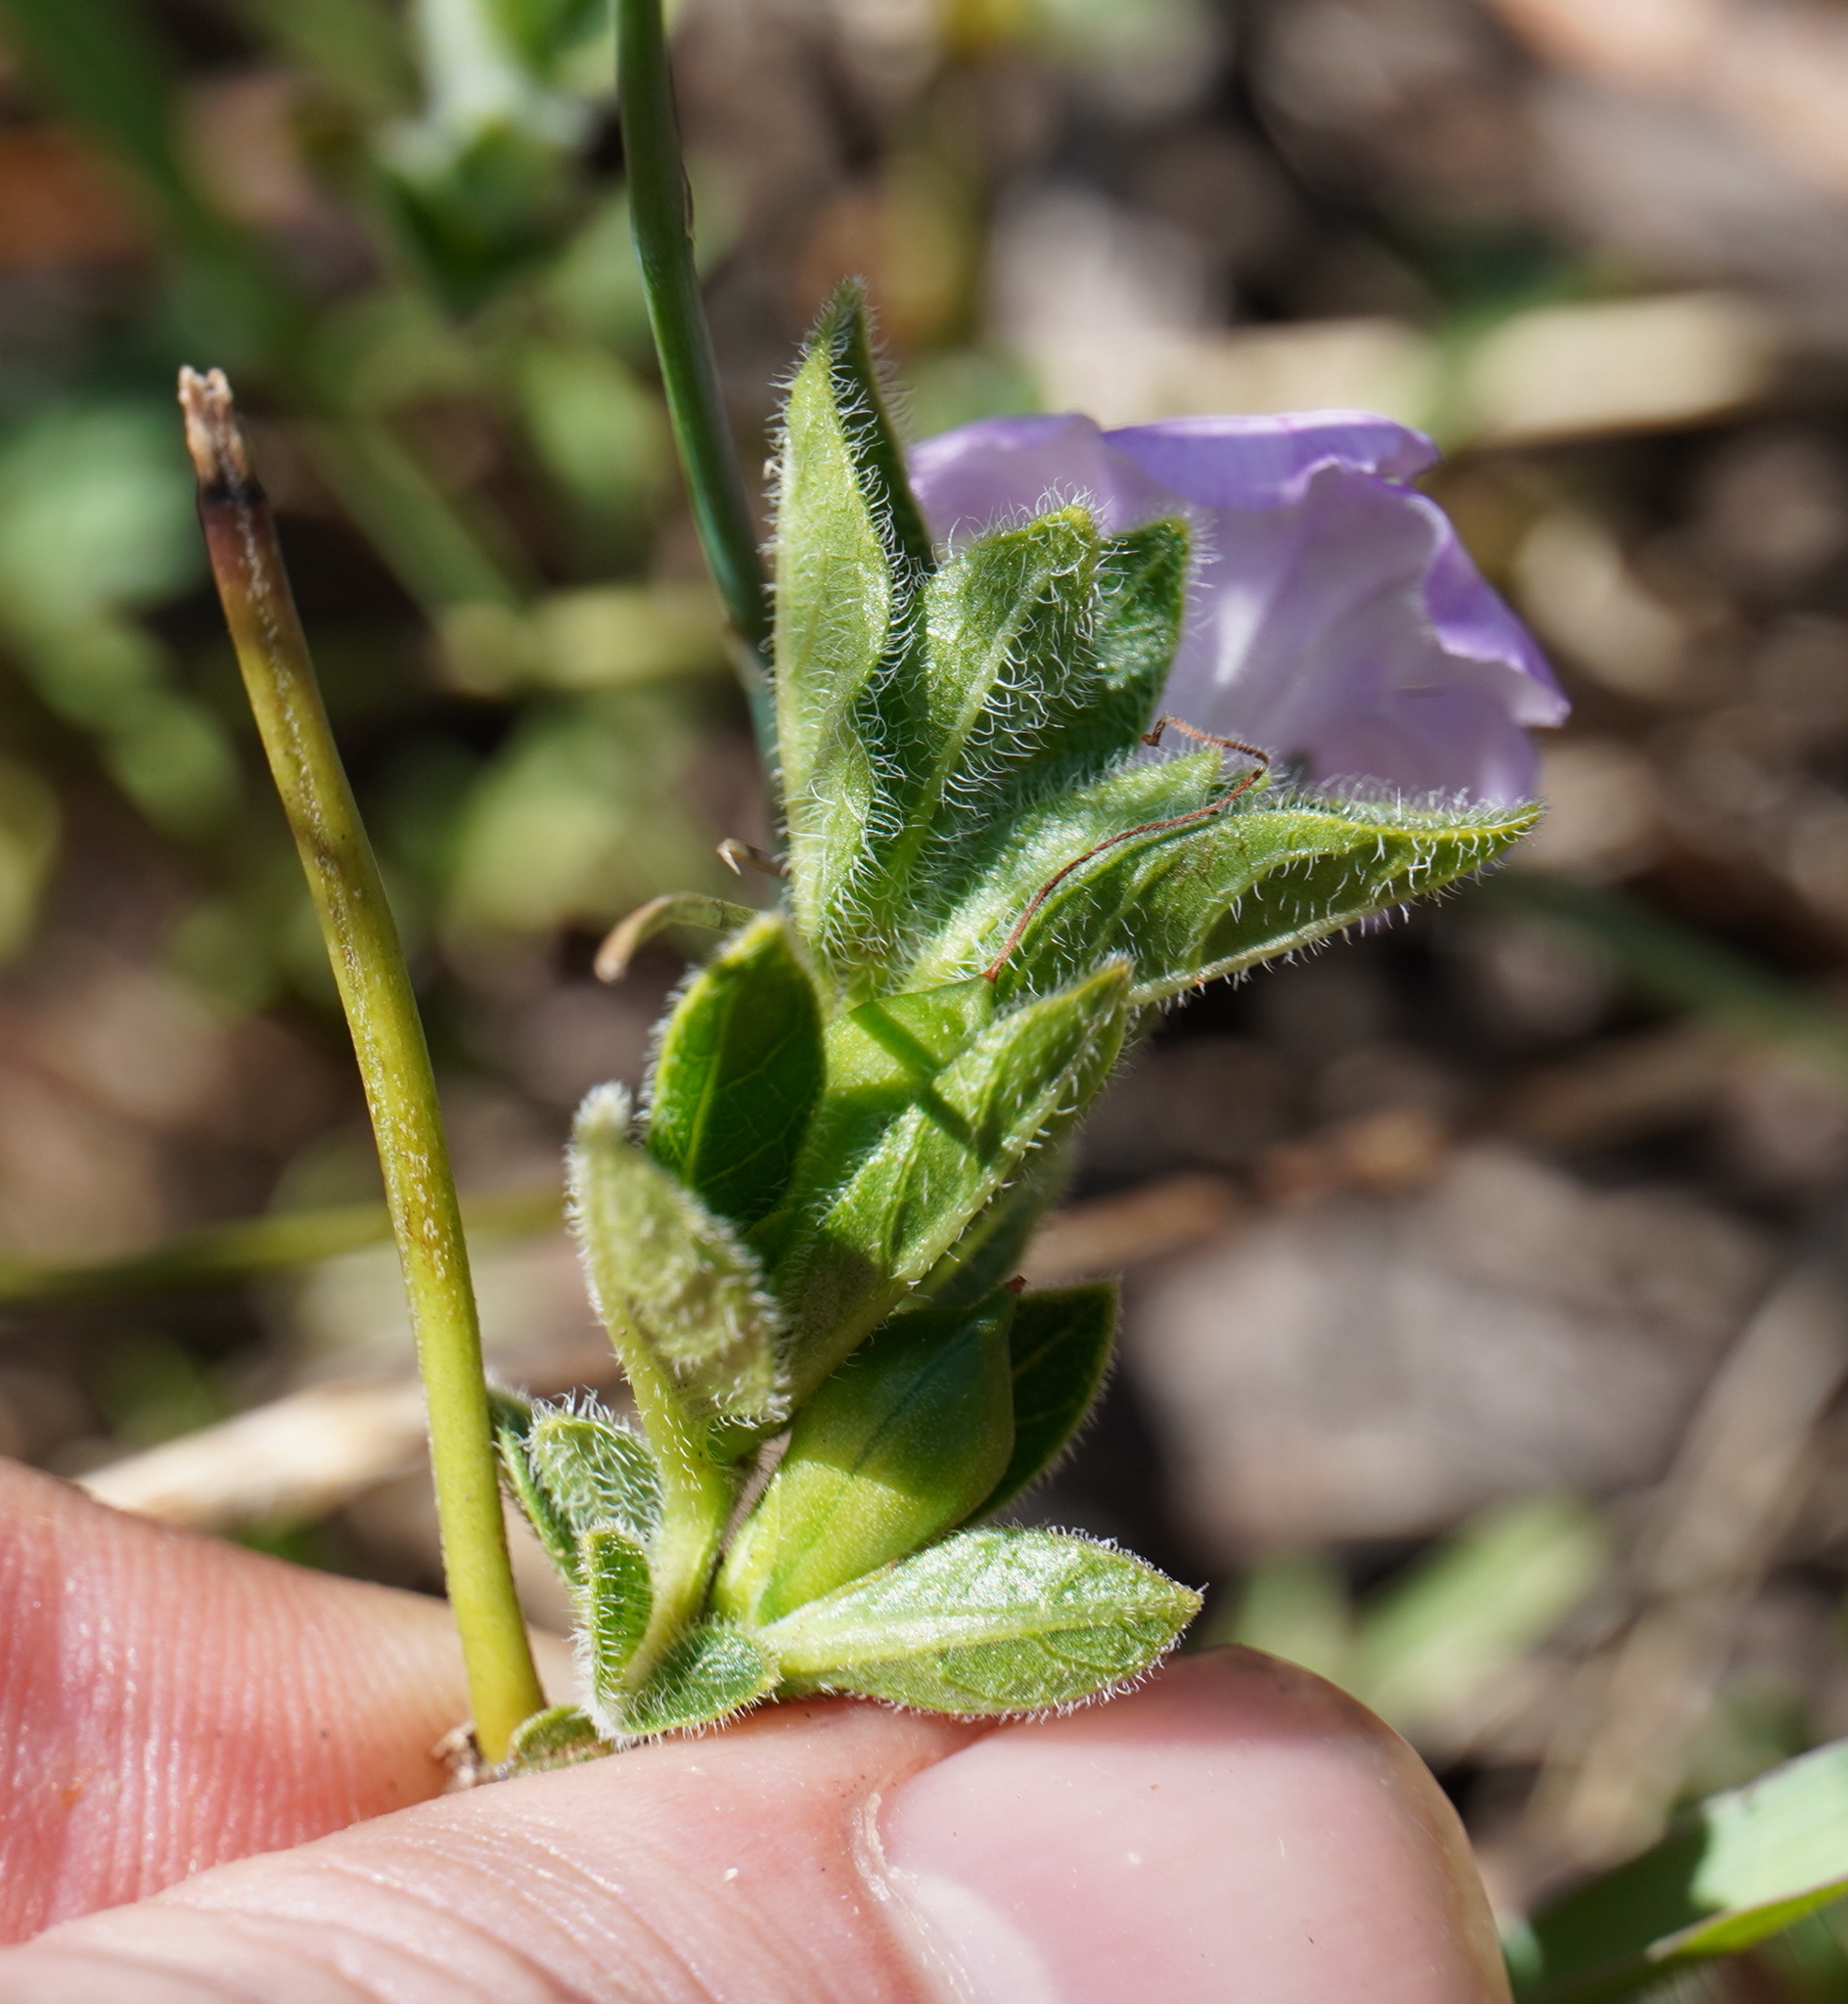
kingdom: Plantae
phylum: Tracheophyta
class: Magnoliopsida
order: Lamiales
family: Acanthaceae
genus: Ruellia
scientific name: Ruellia cordata
